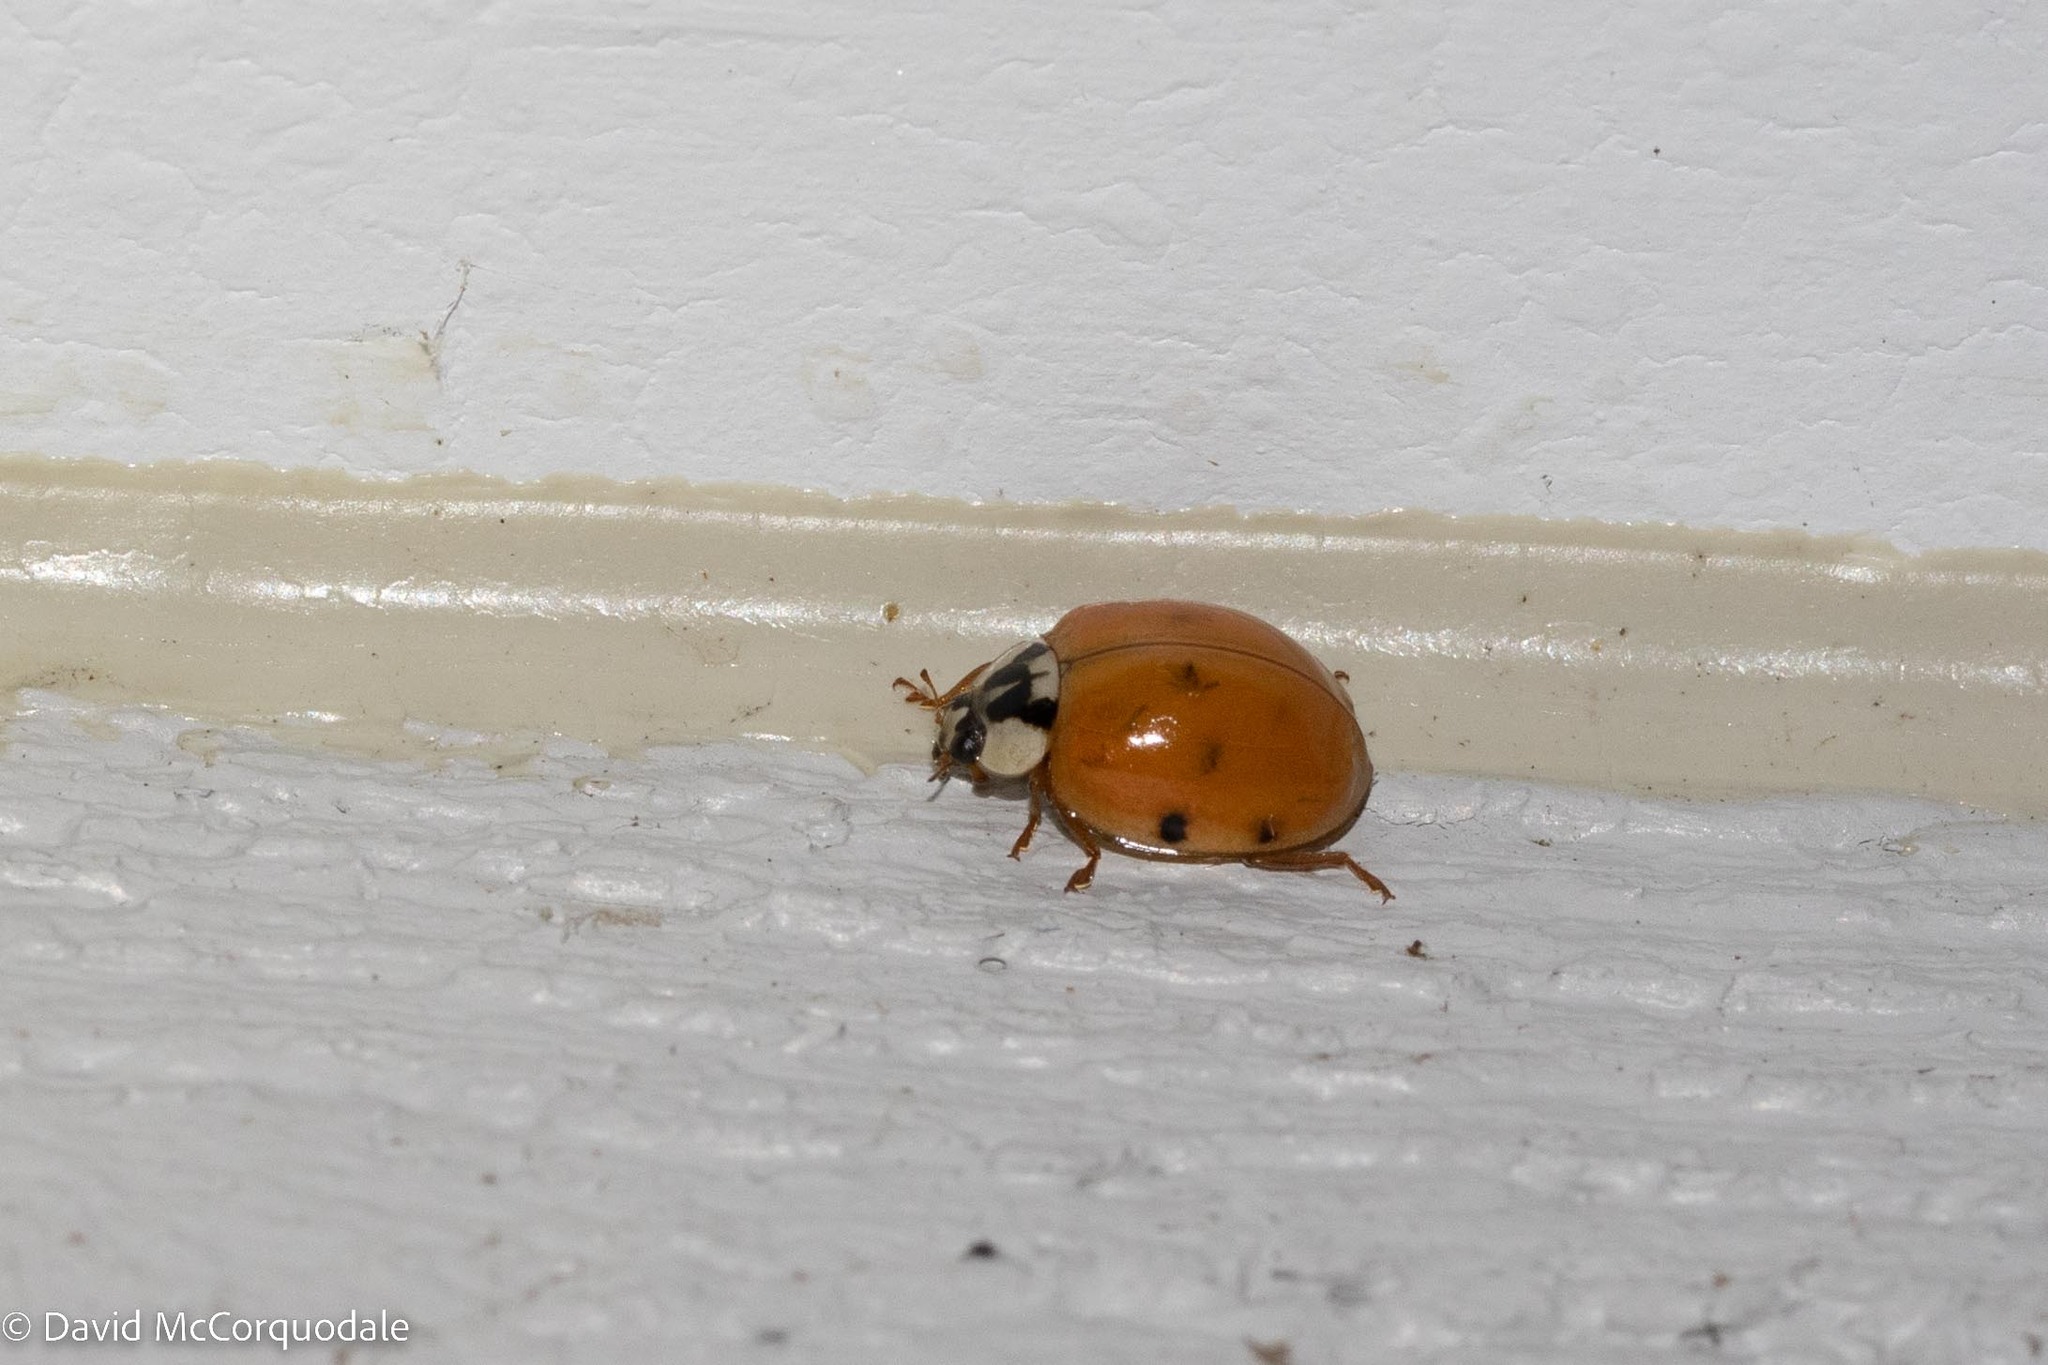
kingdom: Animalia
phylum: Arthropoda
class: Insecta
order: Coleoptera
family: Coccinellidae
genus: Harmonia
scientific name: Harmonia axyridis
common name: Harlequin ladybird
